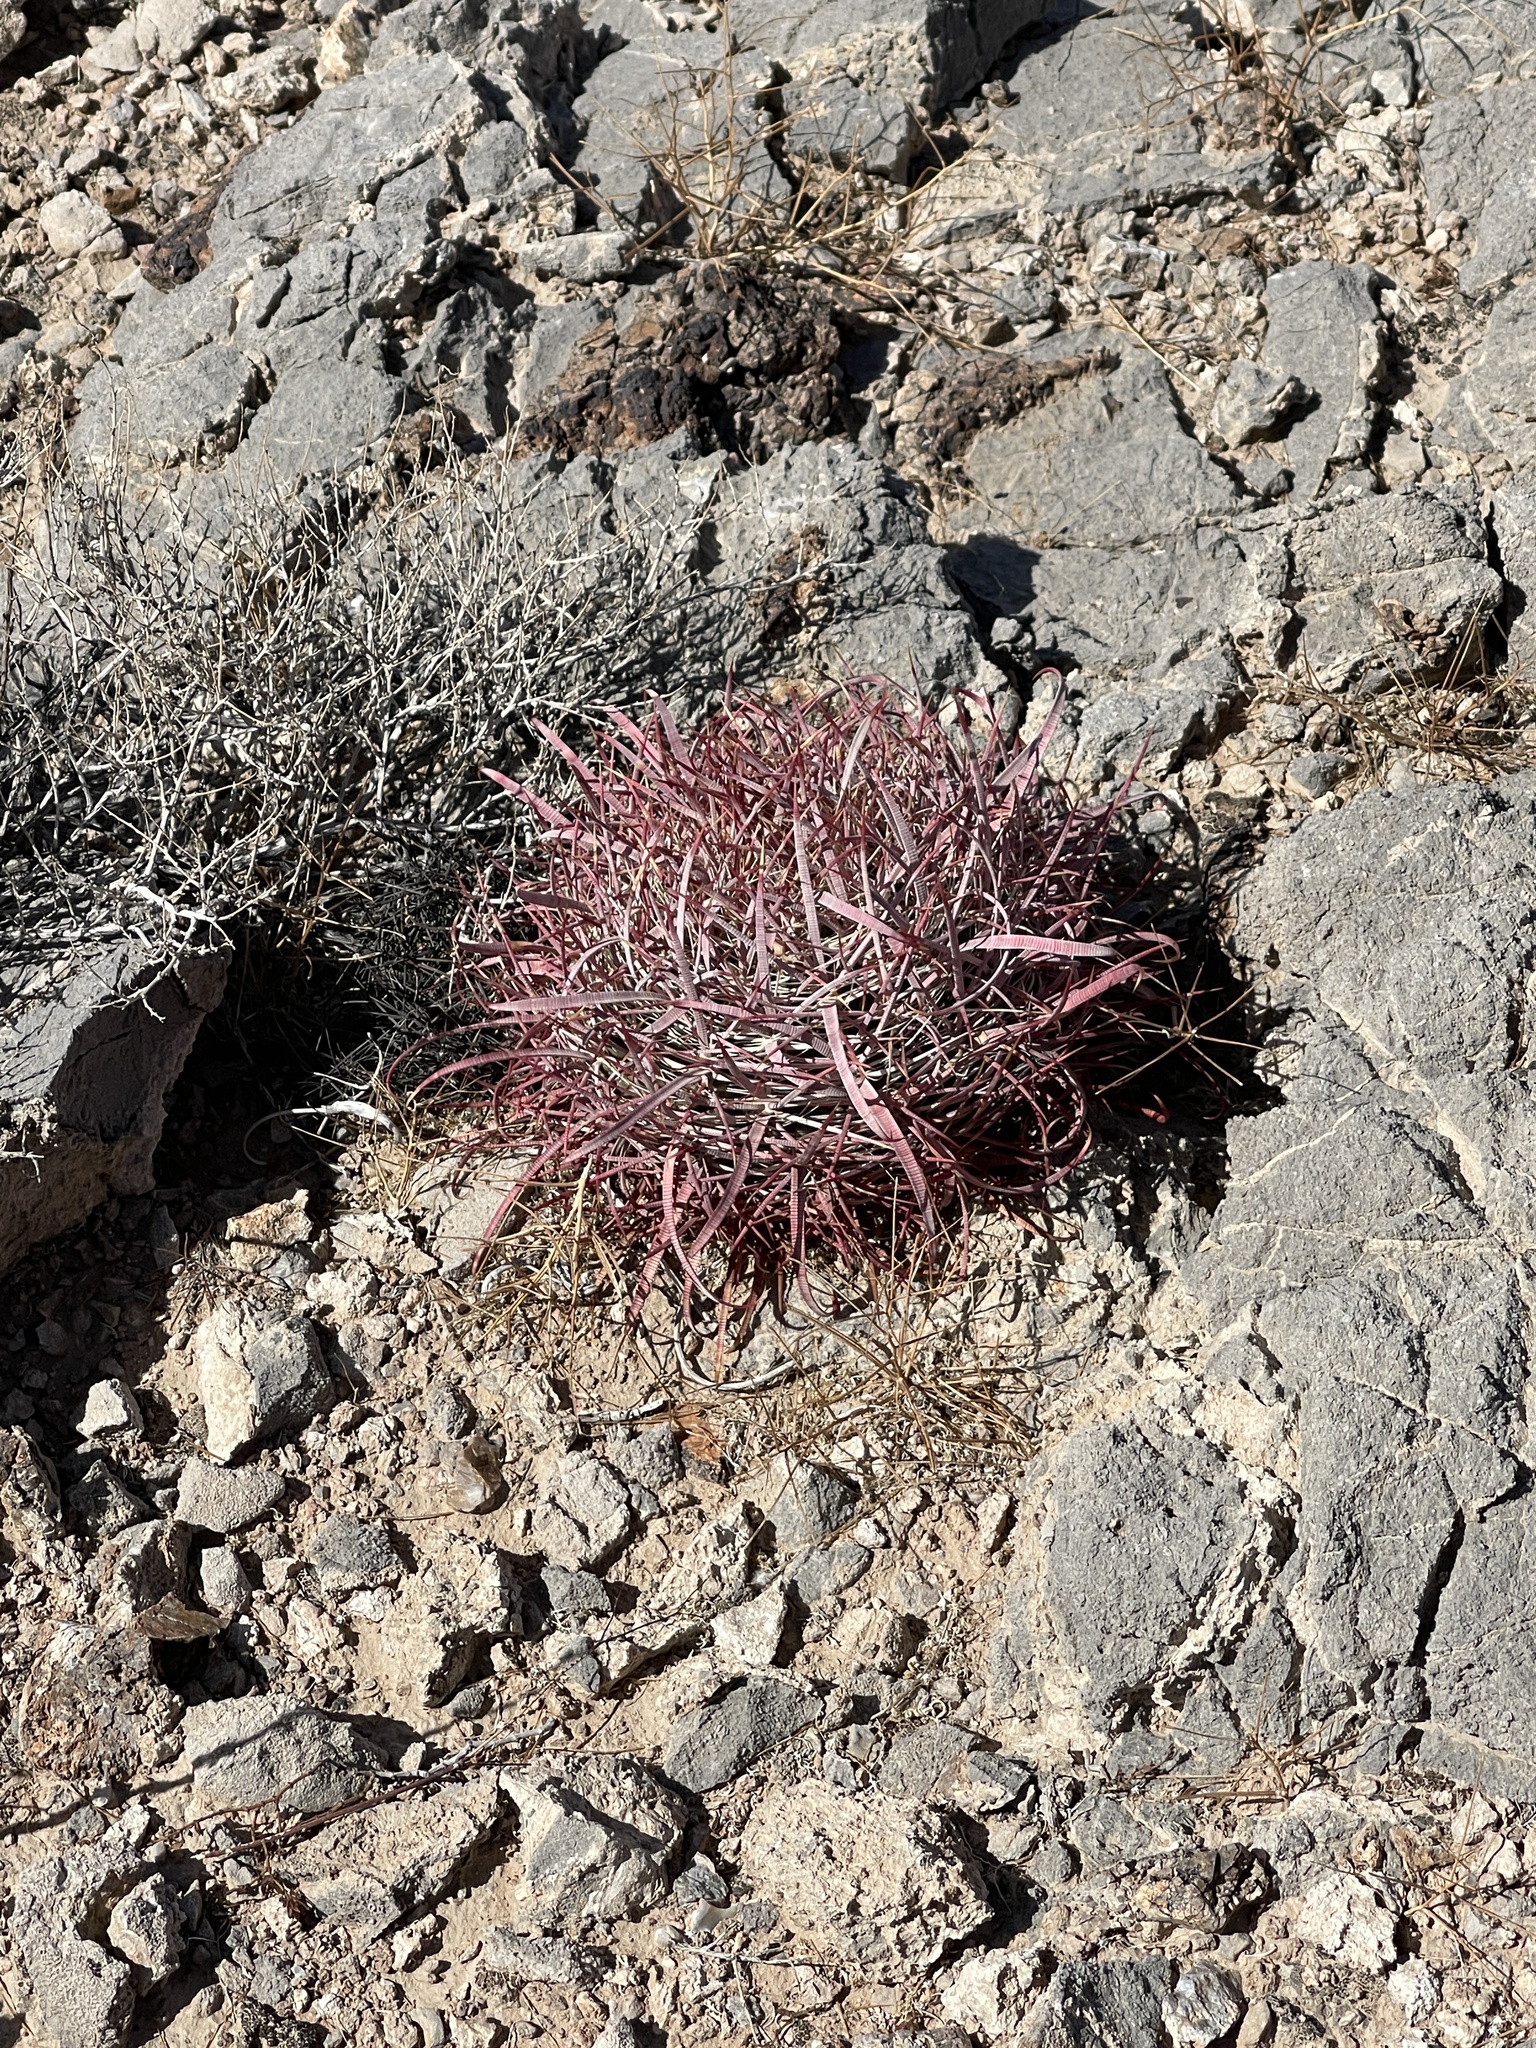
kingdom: Plantae
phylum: Tracheophyta
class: Magnoliopsida
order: Caryophyllales
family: Cactaceae
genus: Ferocactus
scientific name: Ferocactus cylindraceus
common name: California barrel cactus
